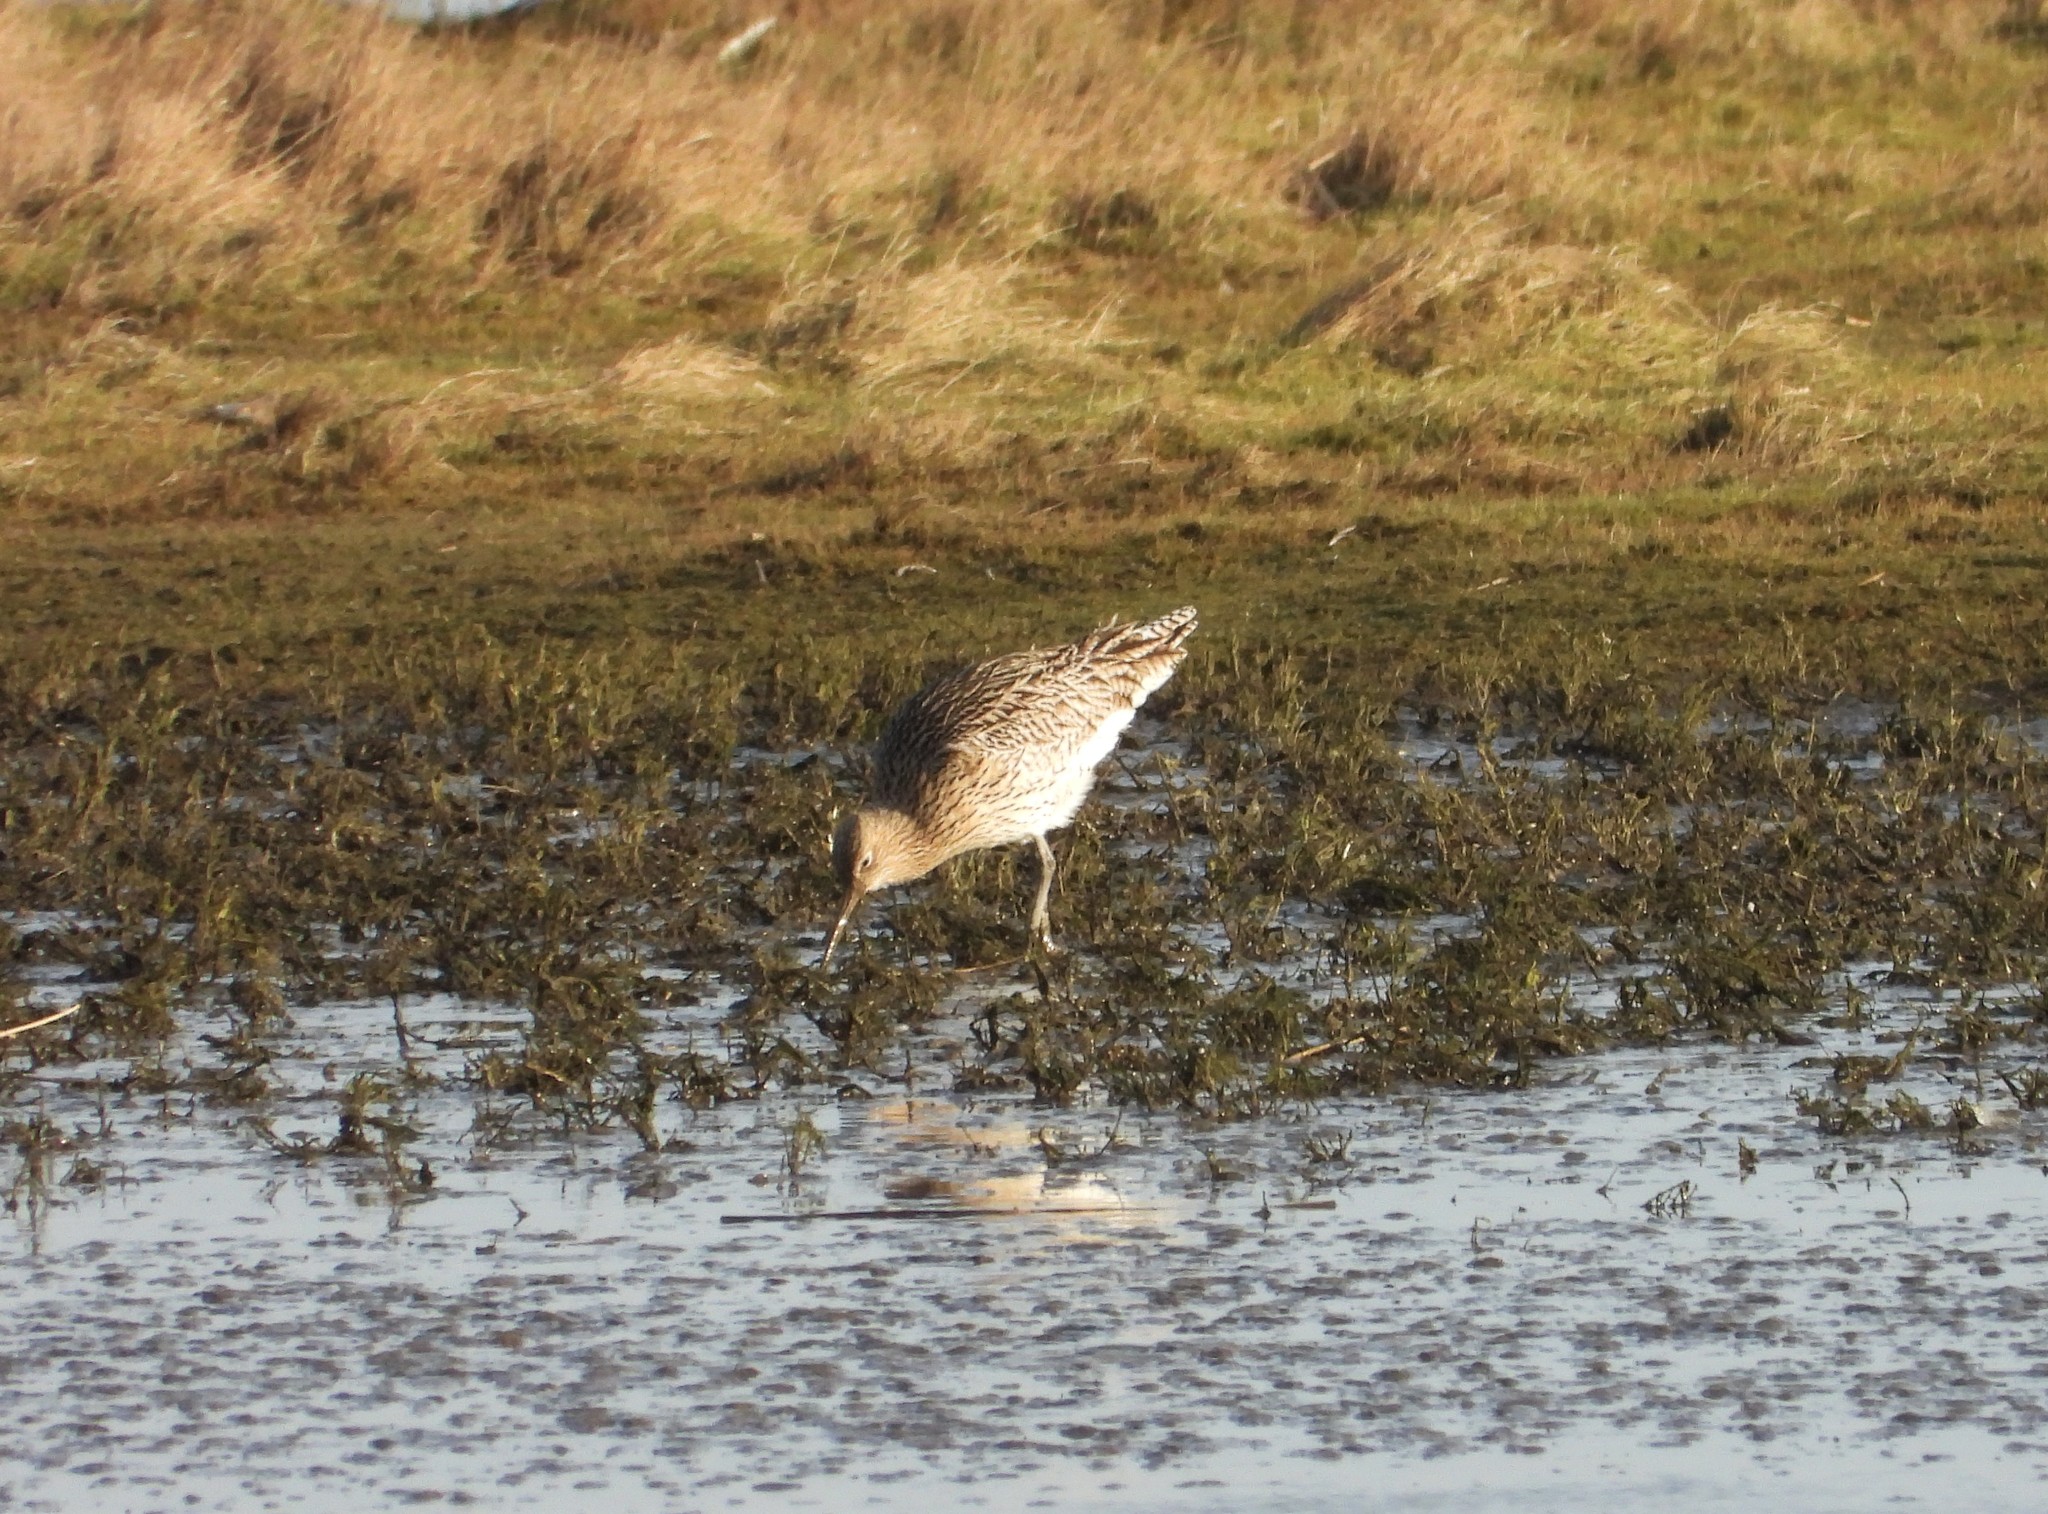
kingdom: Animalia
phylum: Chordata
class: Aves
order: Charadriiformes
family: Scolopacidae
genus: Numenius
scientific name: Numenius arquata
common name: Eurasian curlew
